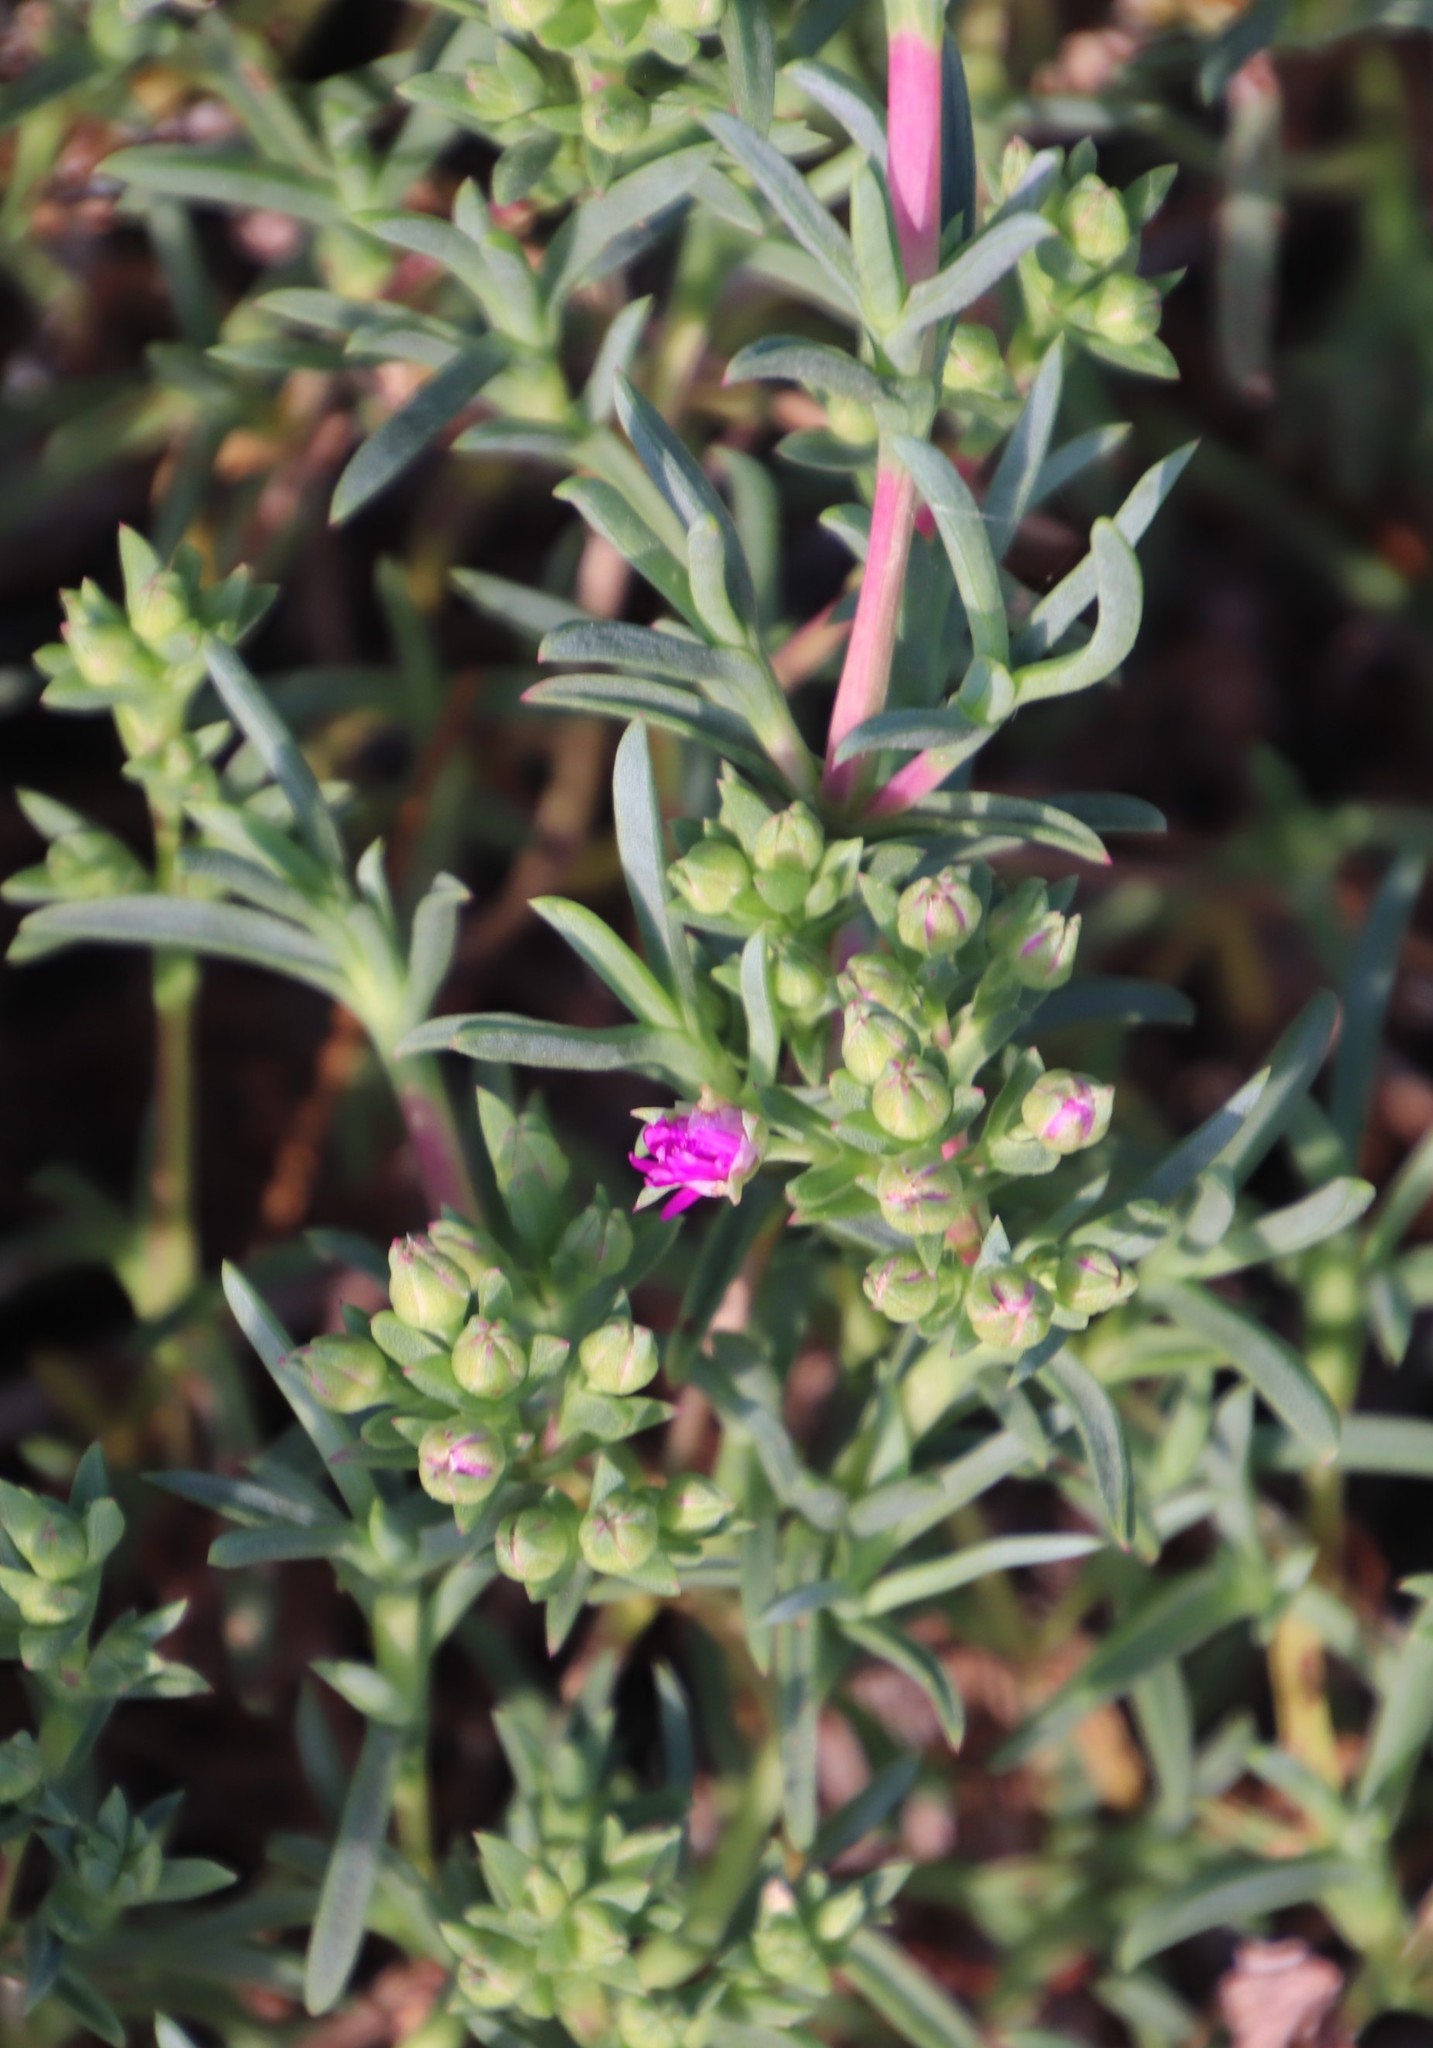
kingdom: Plantae
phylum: Tracheophyta
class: Magnoliopsida
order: Caryophyllales
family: Aizoaceae
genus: Ruschia
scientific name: Ruschia macowanii
